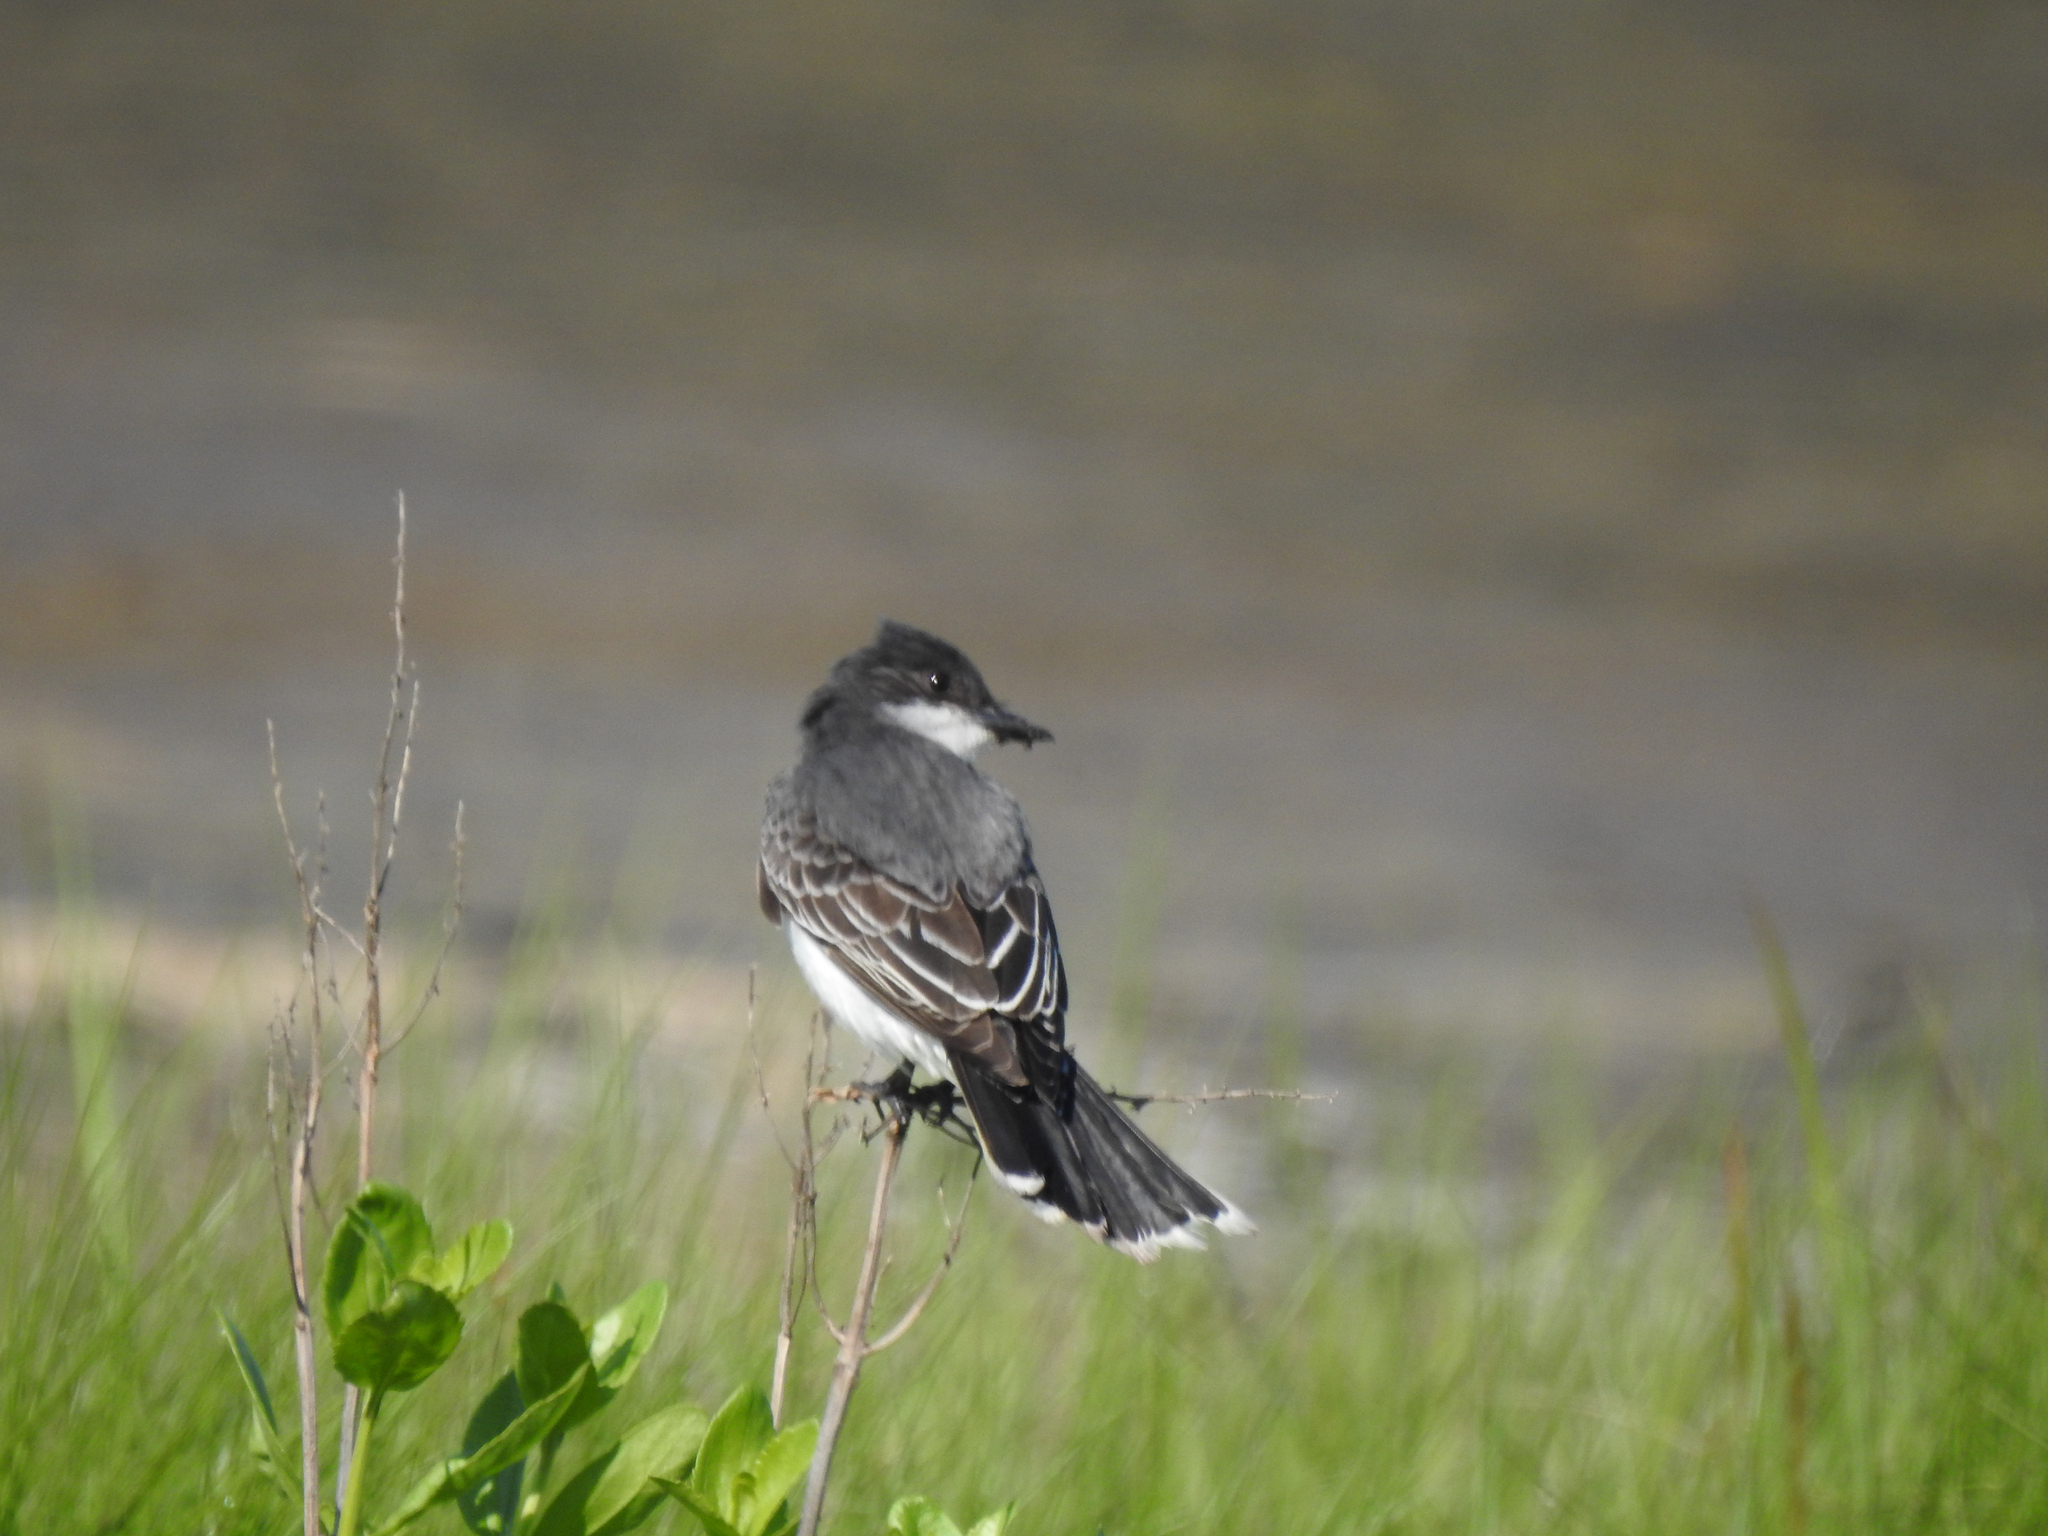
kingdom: Animalia
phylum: Chordata
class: Aves
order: Passeriformes
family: Tyrannidae
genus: Tyrannus
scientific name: Tyrannus tyrannus
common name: Eastern kingbird
